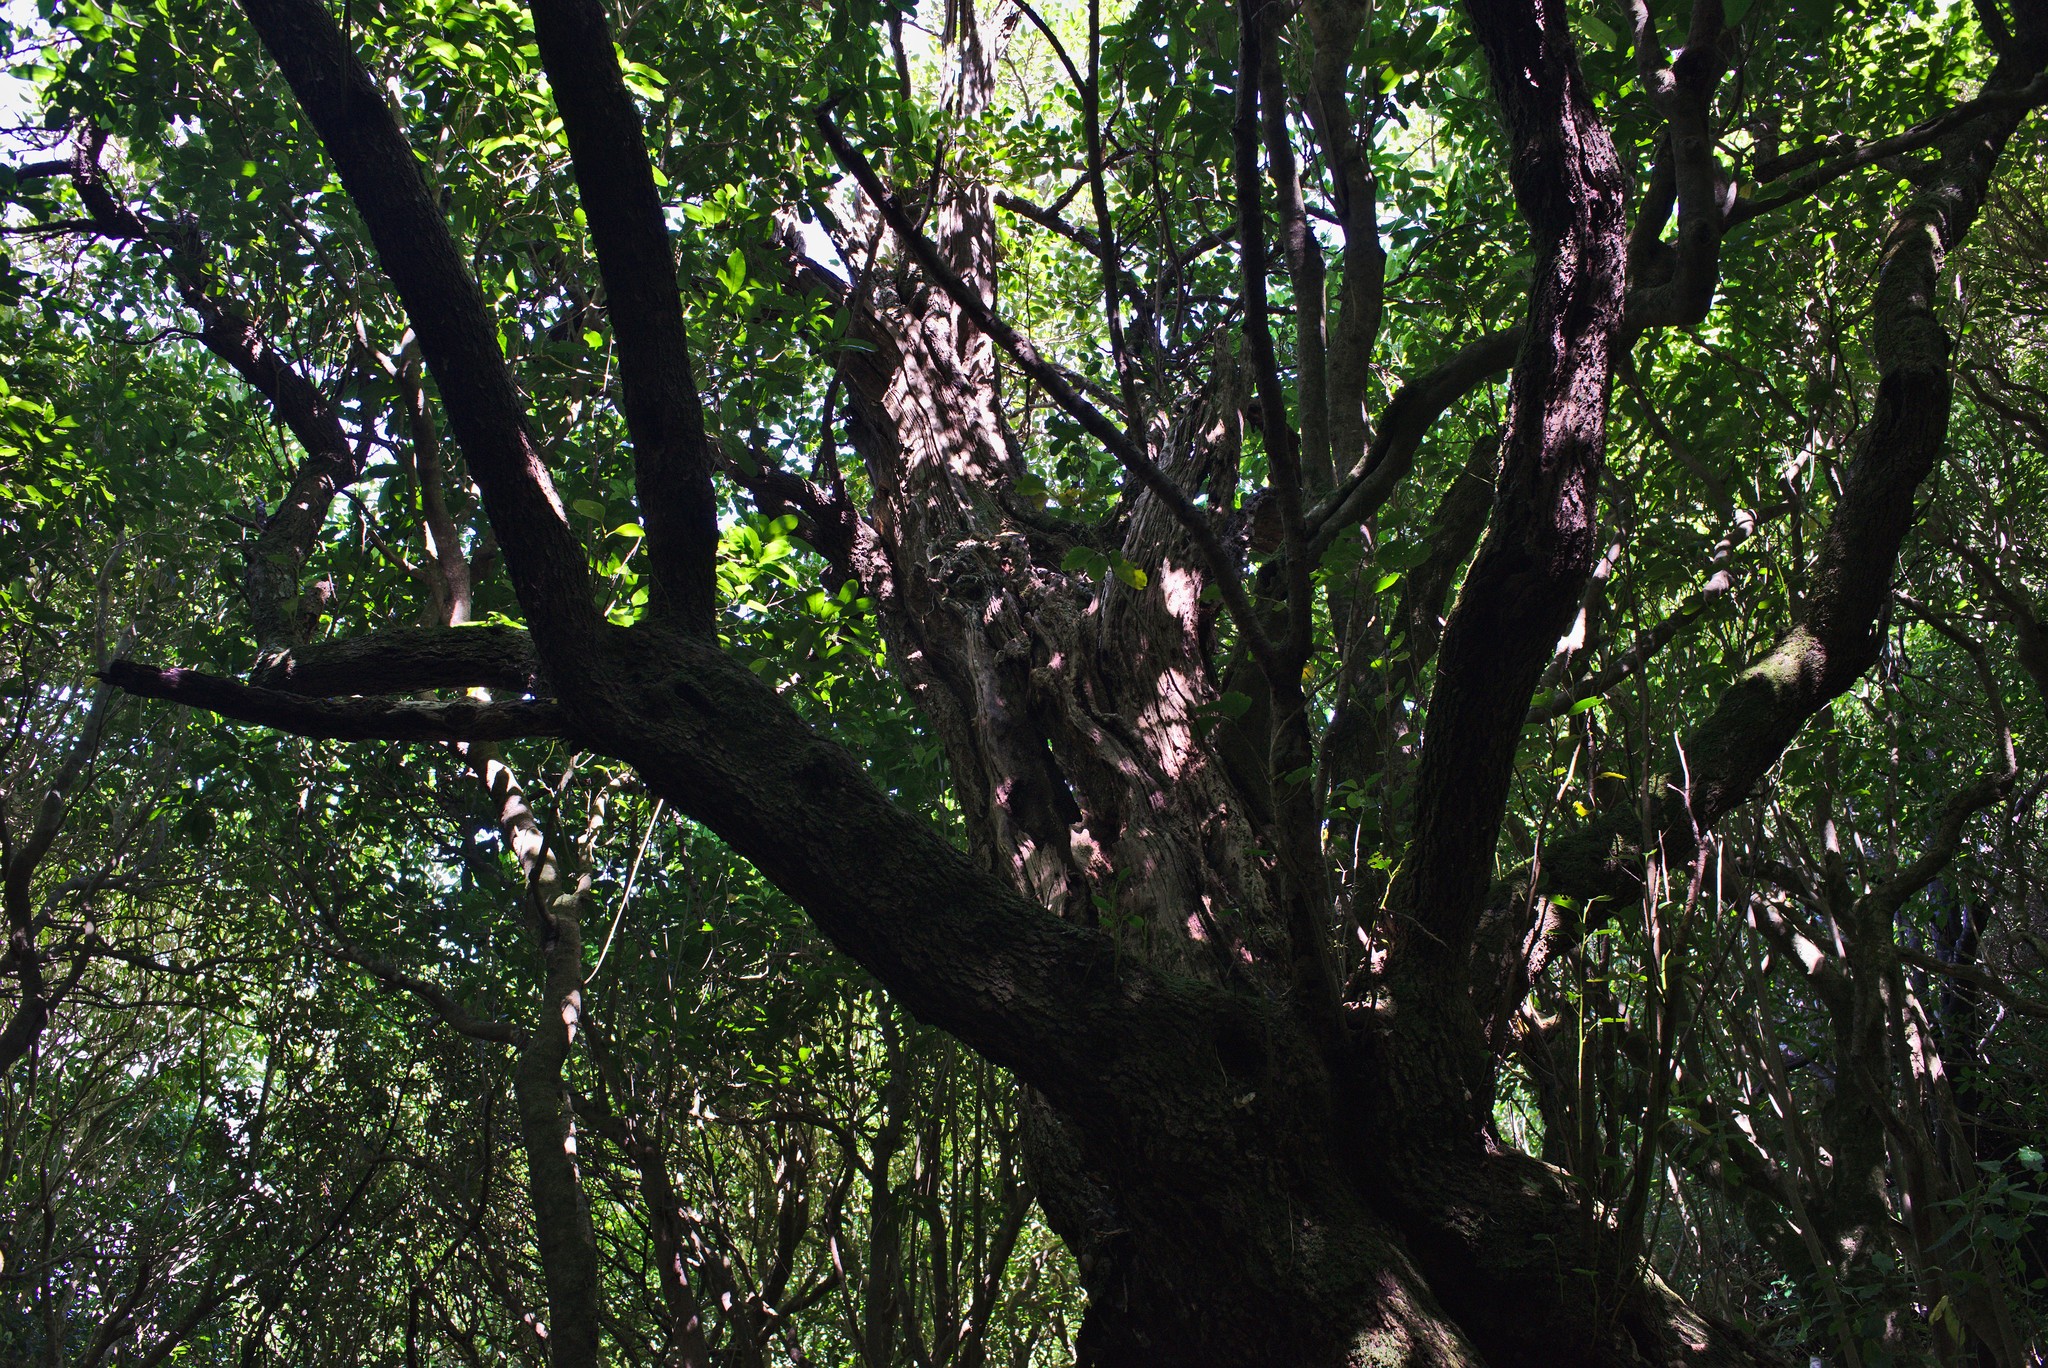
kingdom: Plantae
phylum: Tracheophyta
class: Magnoliopsida
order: Apiales
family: Griseliniaceae
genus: Griselinia
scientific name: Griselinia littoralis
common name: New zealand broadleaf
